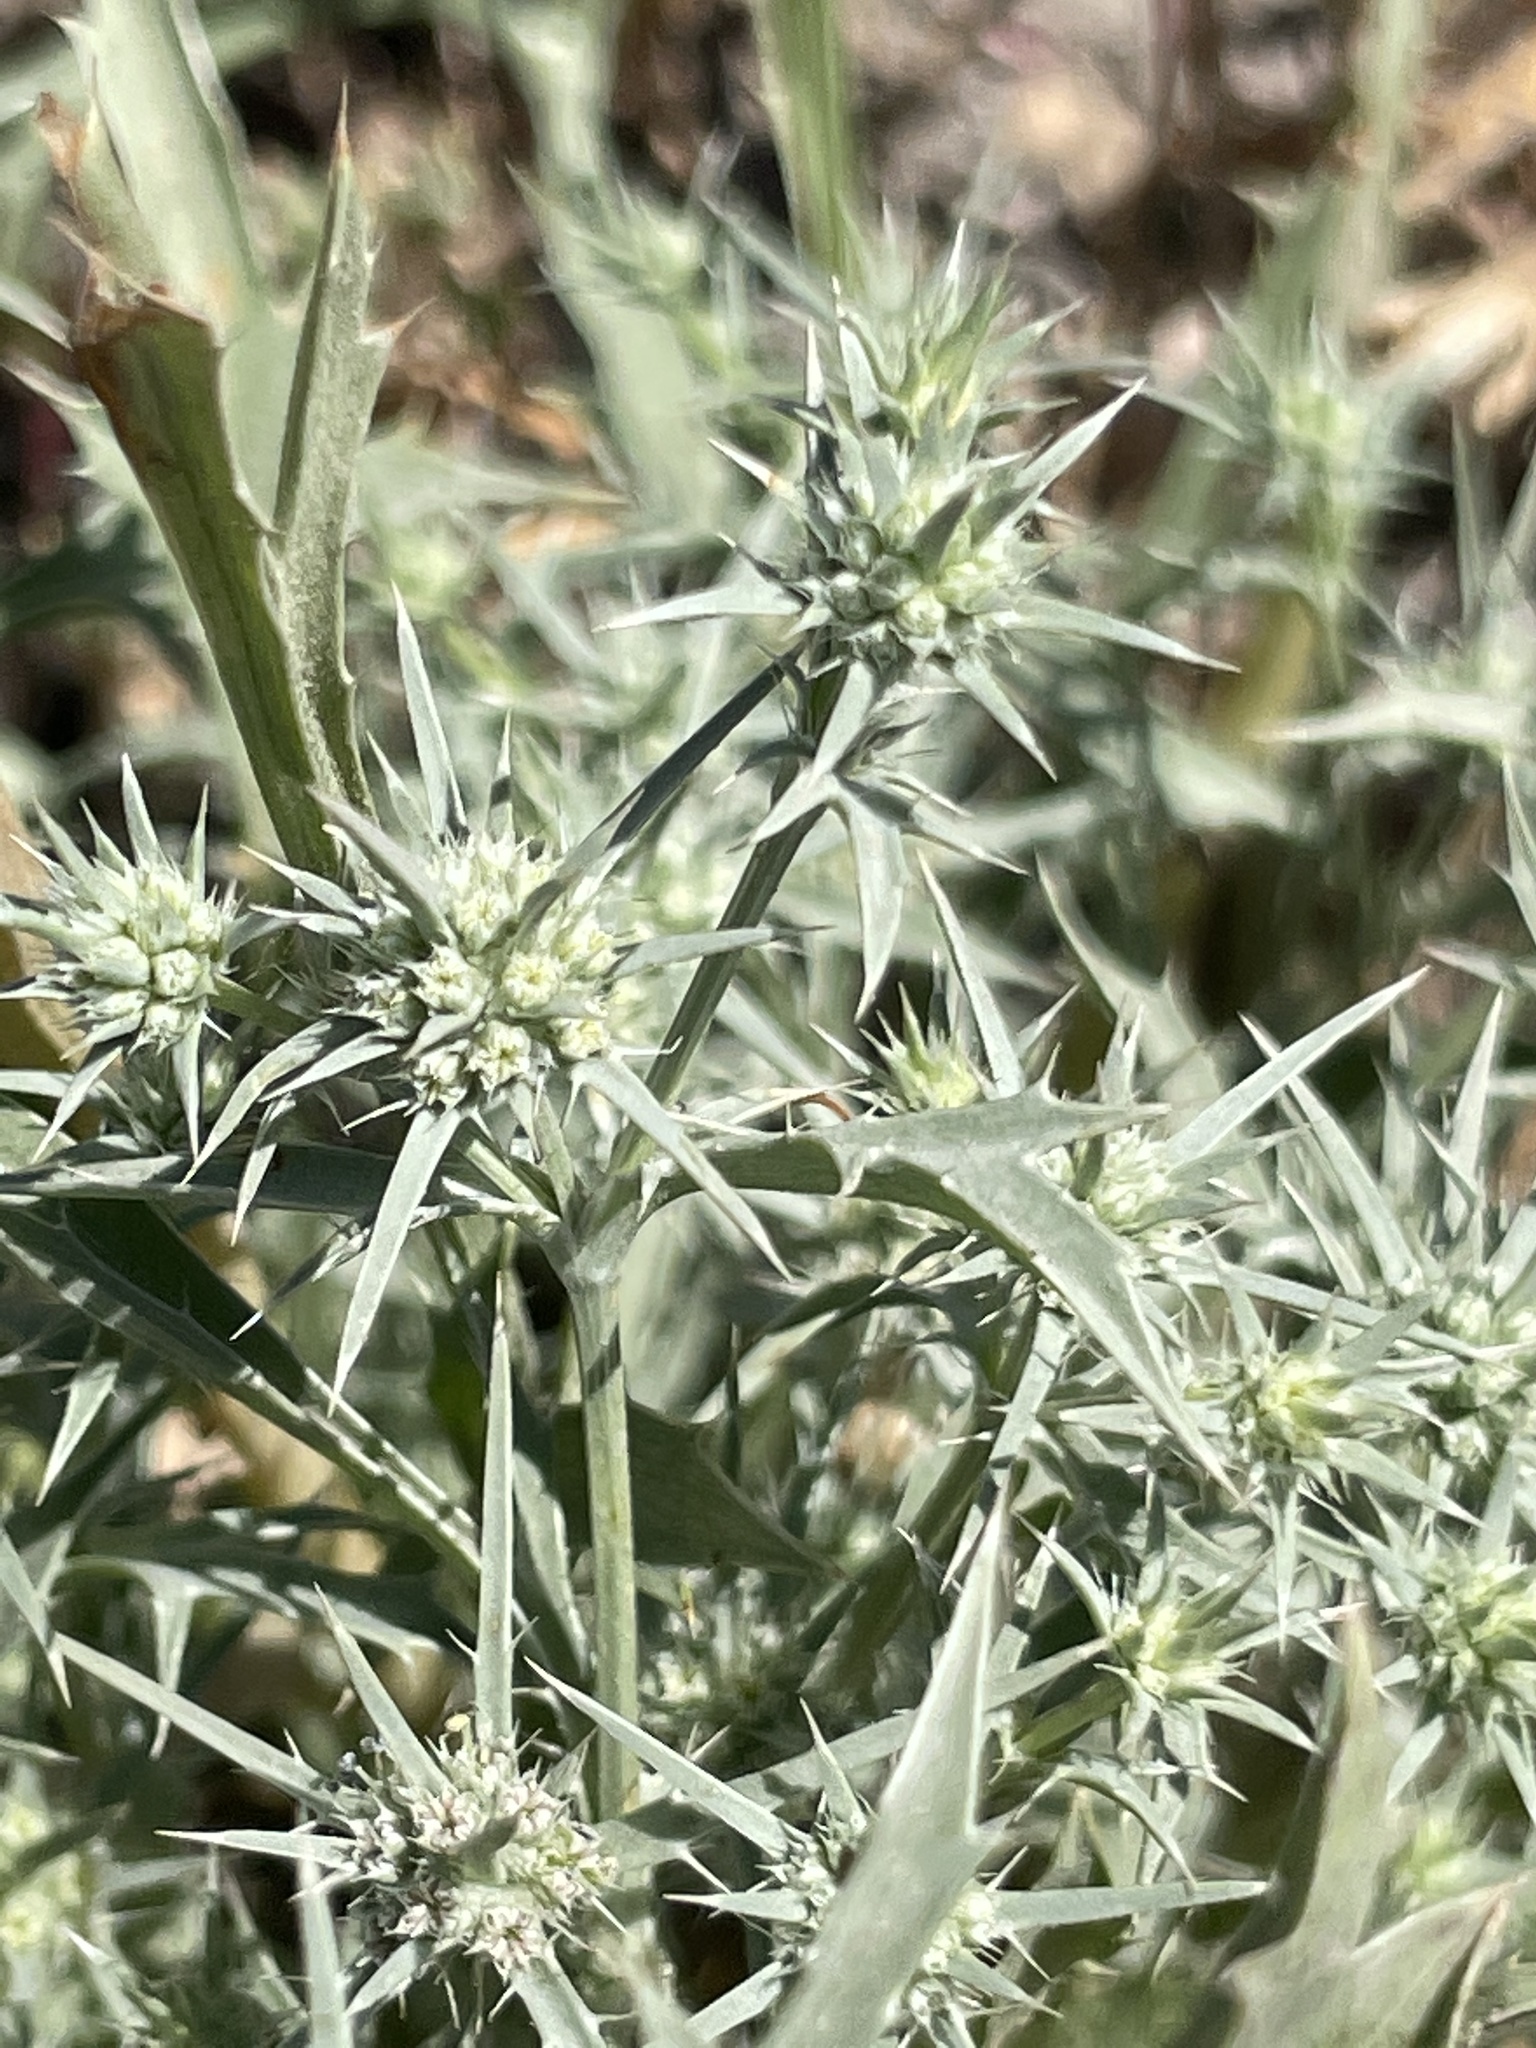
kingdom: Plantae
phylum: Tracheophyta
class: Magnoliopsida
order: Apiales
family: Apiaceae
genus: Eryngium
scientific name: Eryngium aristulatum
